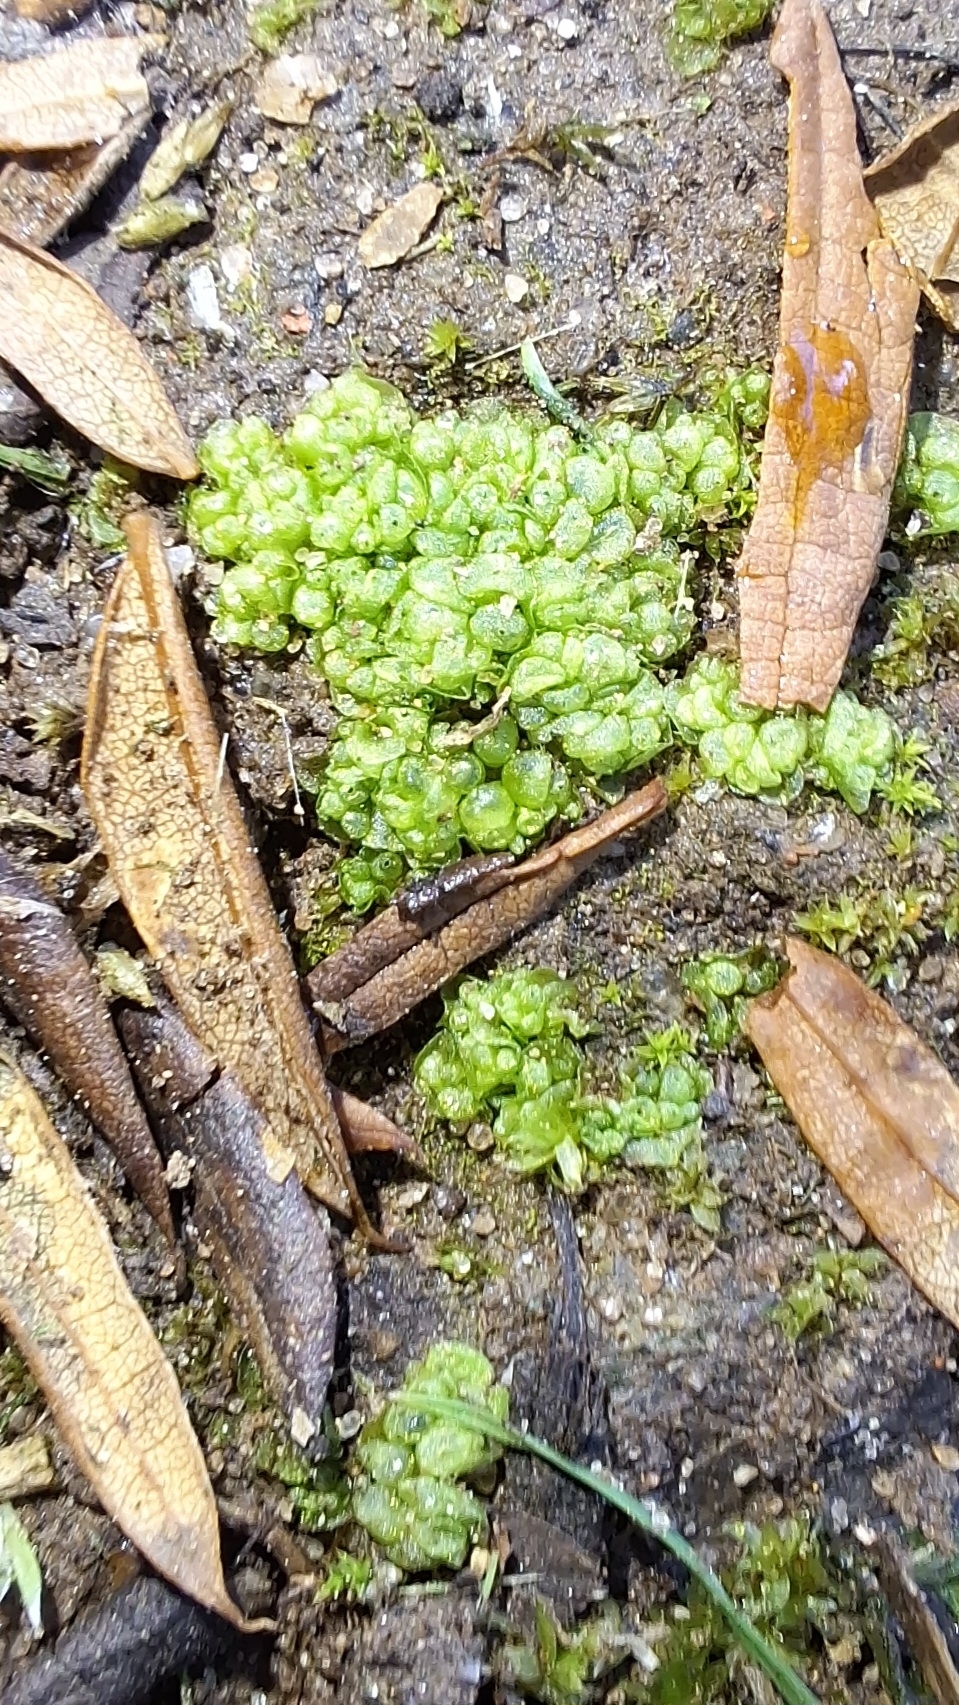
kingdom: Plantae
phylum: Marchantiophyta
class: Marchantiopsida
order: Sphaerocarpales
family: Sphaerocarpaceae
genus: Sphaerocarpos
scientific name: Sphaerocarpos texanus
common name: Texas balloonwort
